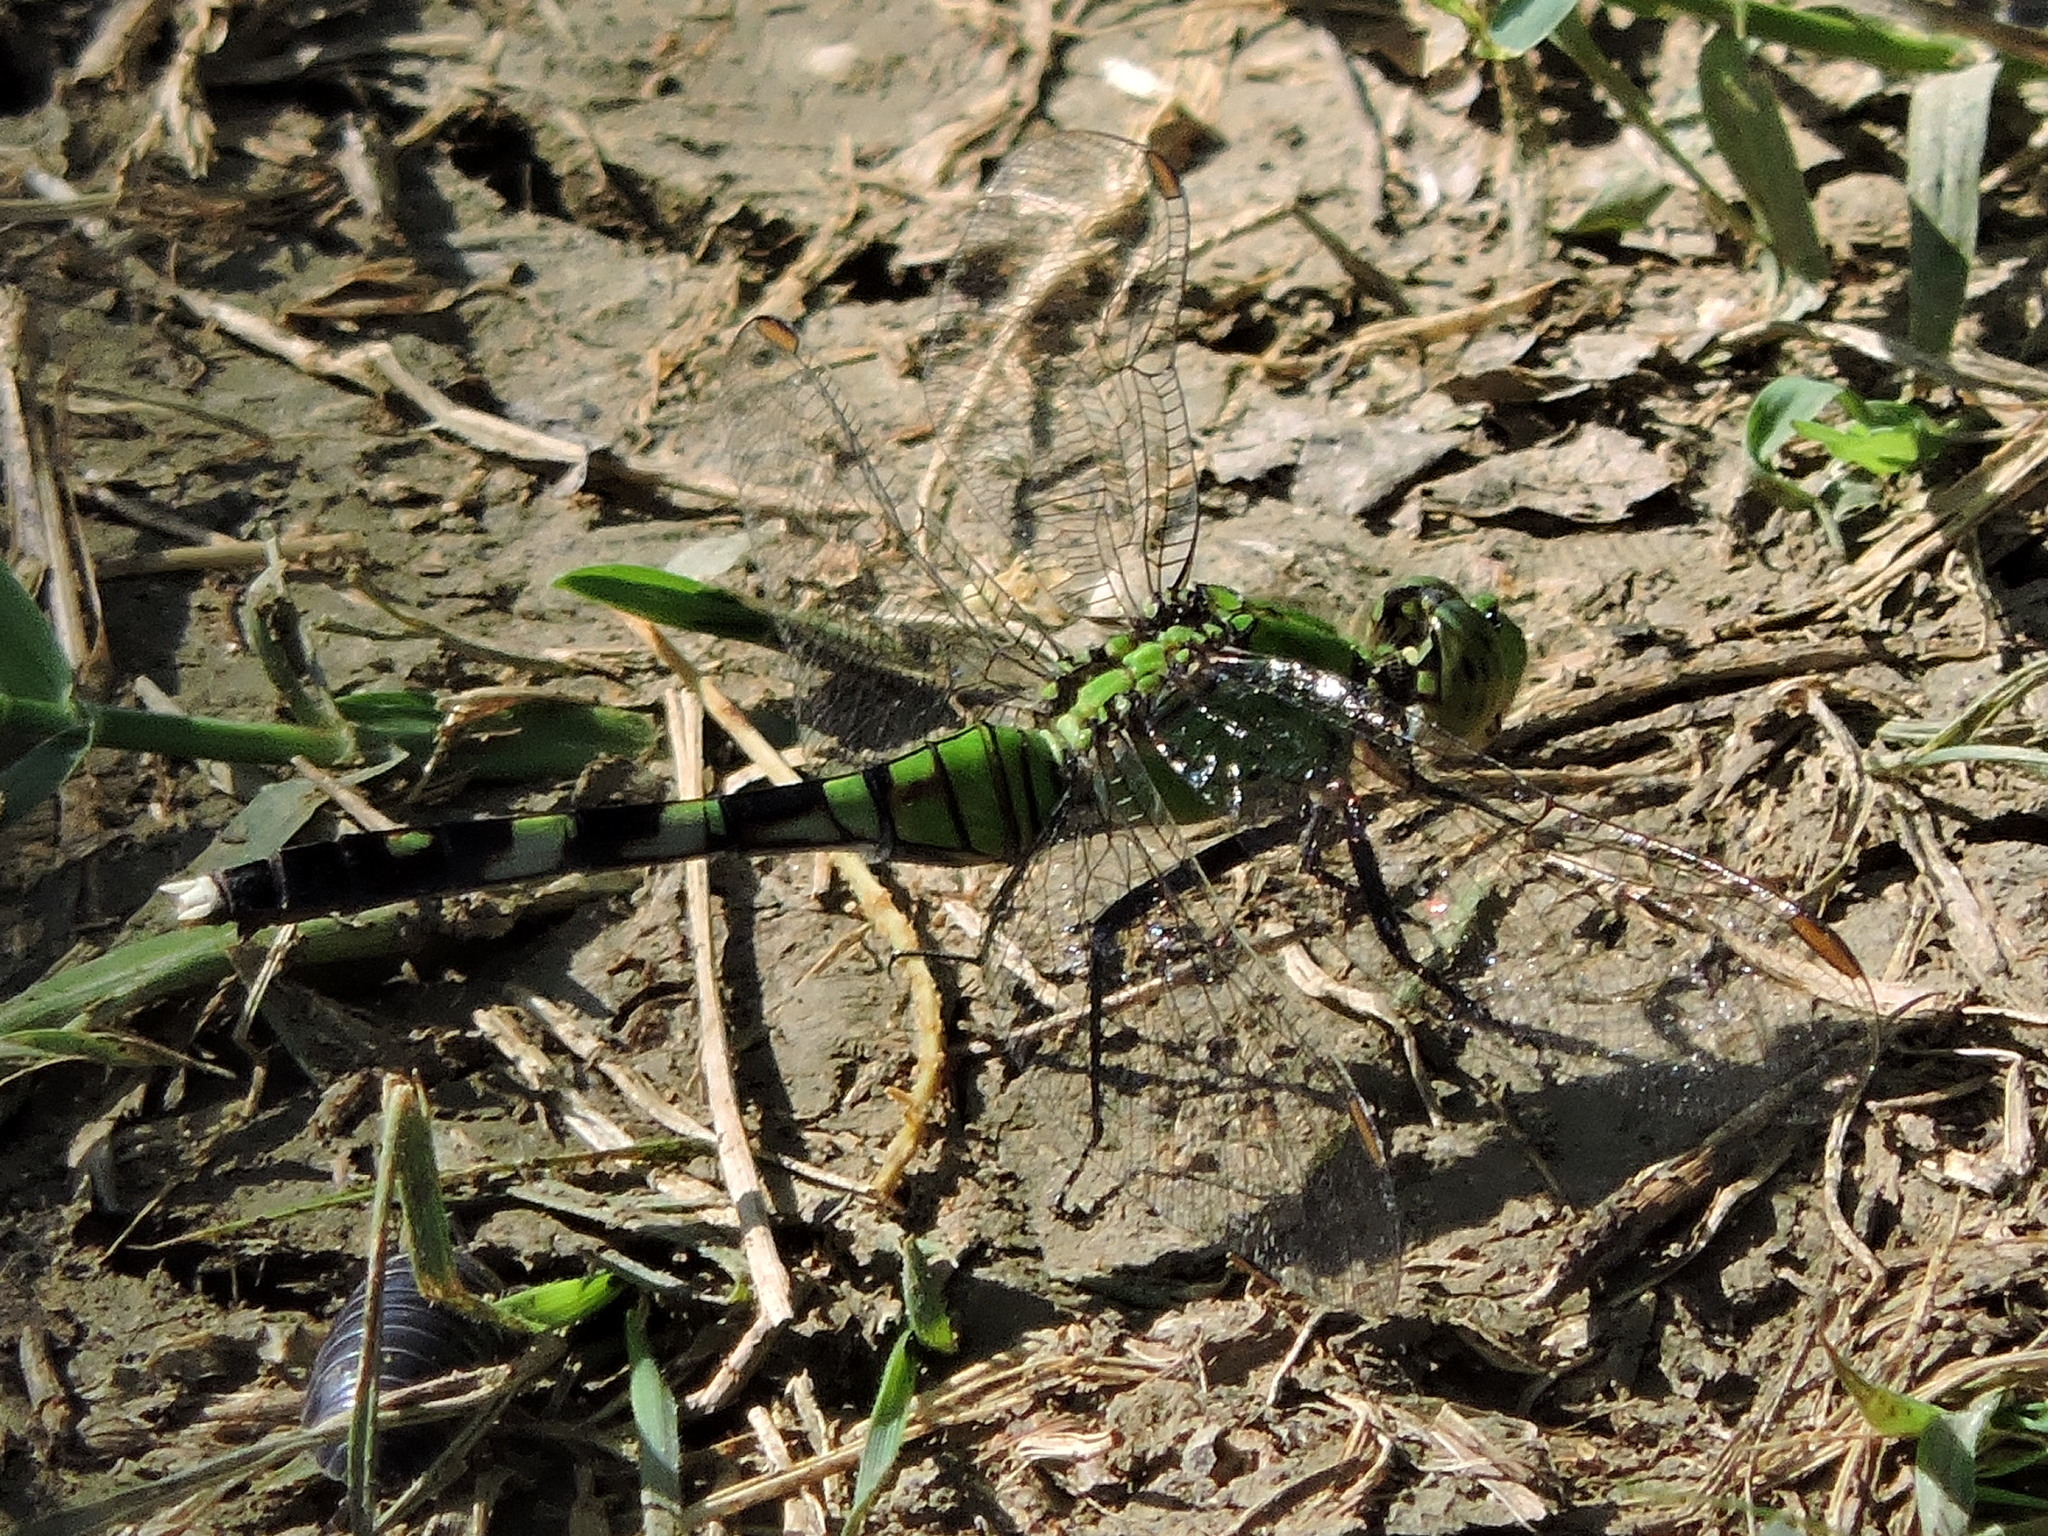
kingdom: Animalia
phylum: Arthropoda
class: Insecta
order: Odonata
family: Libellulidae
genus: Erythemis
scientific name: Erythemis simplicicollis
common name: Eastern pondhawk
